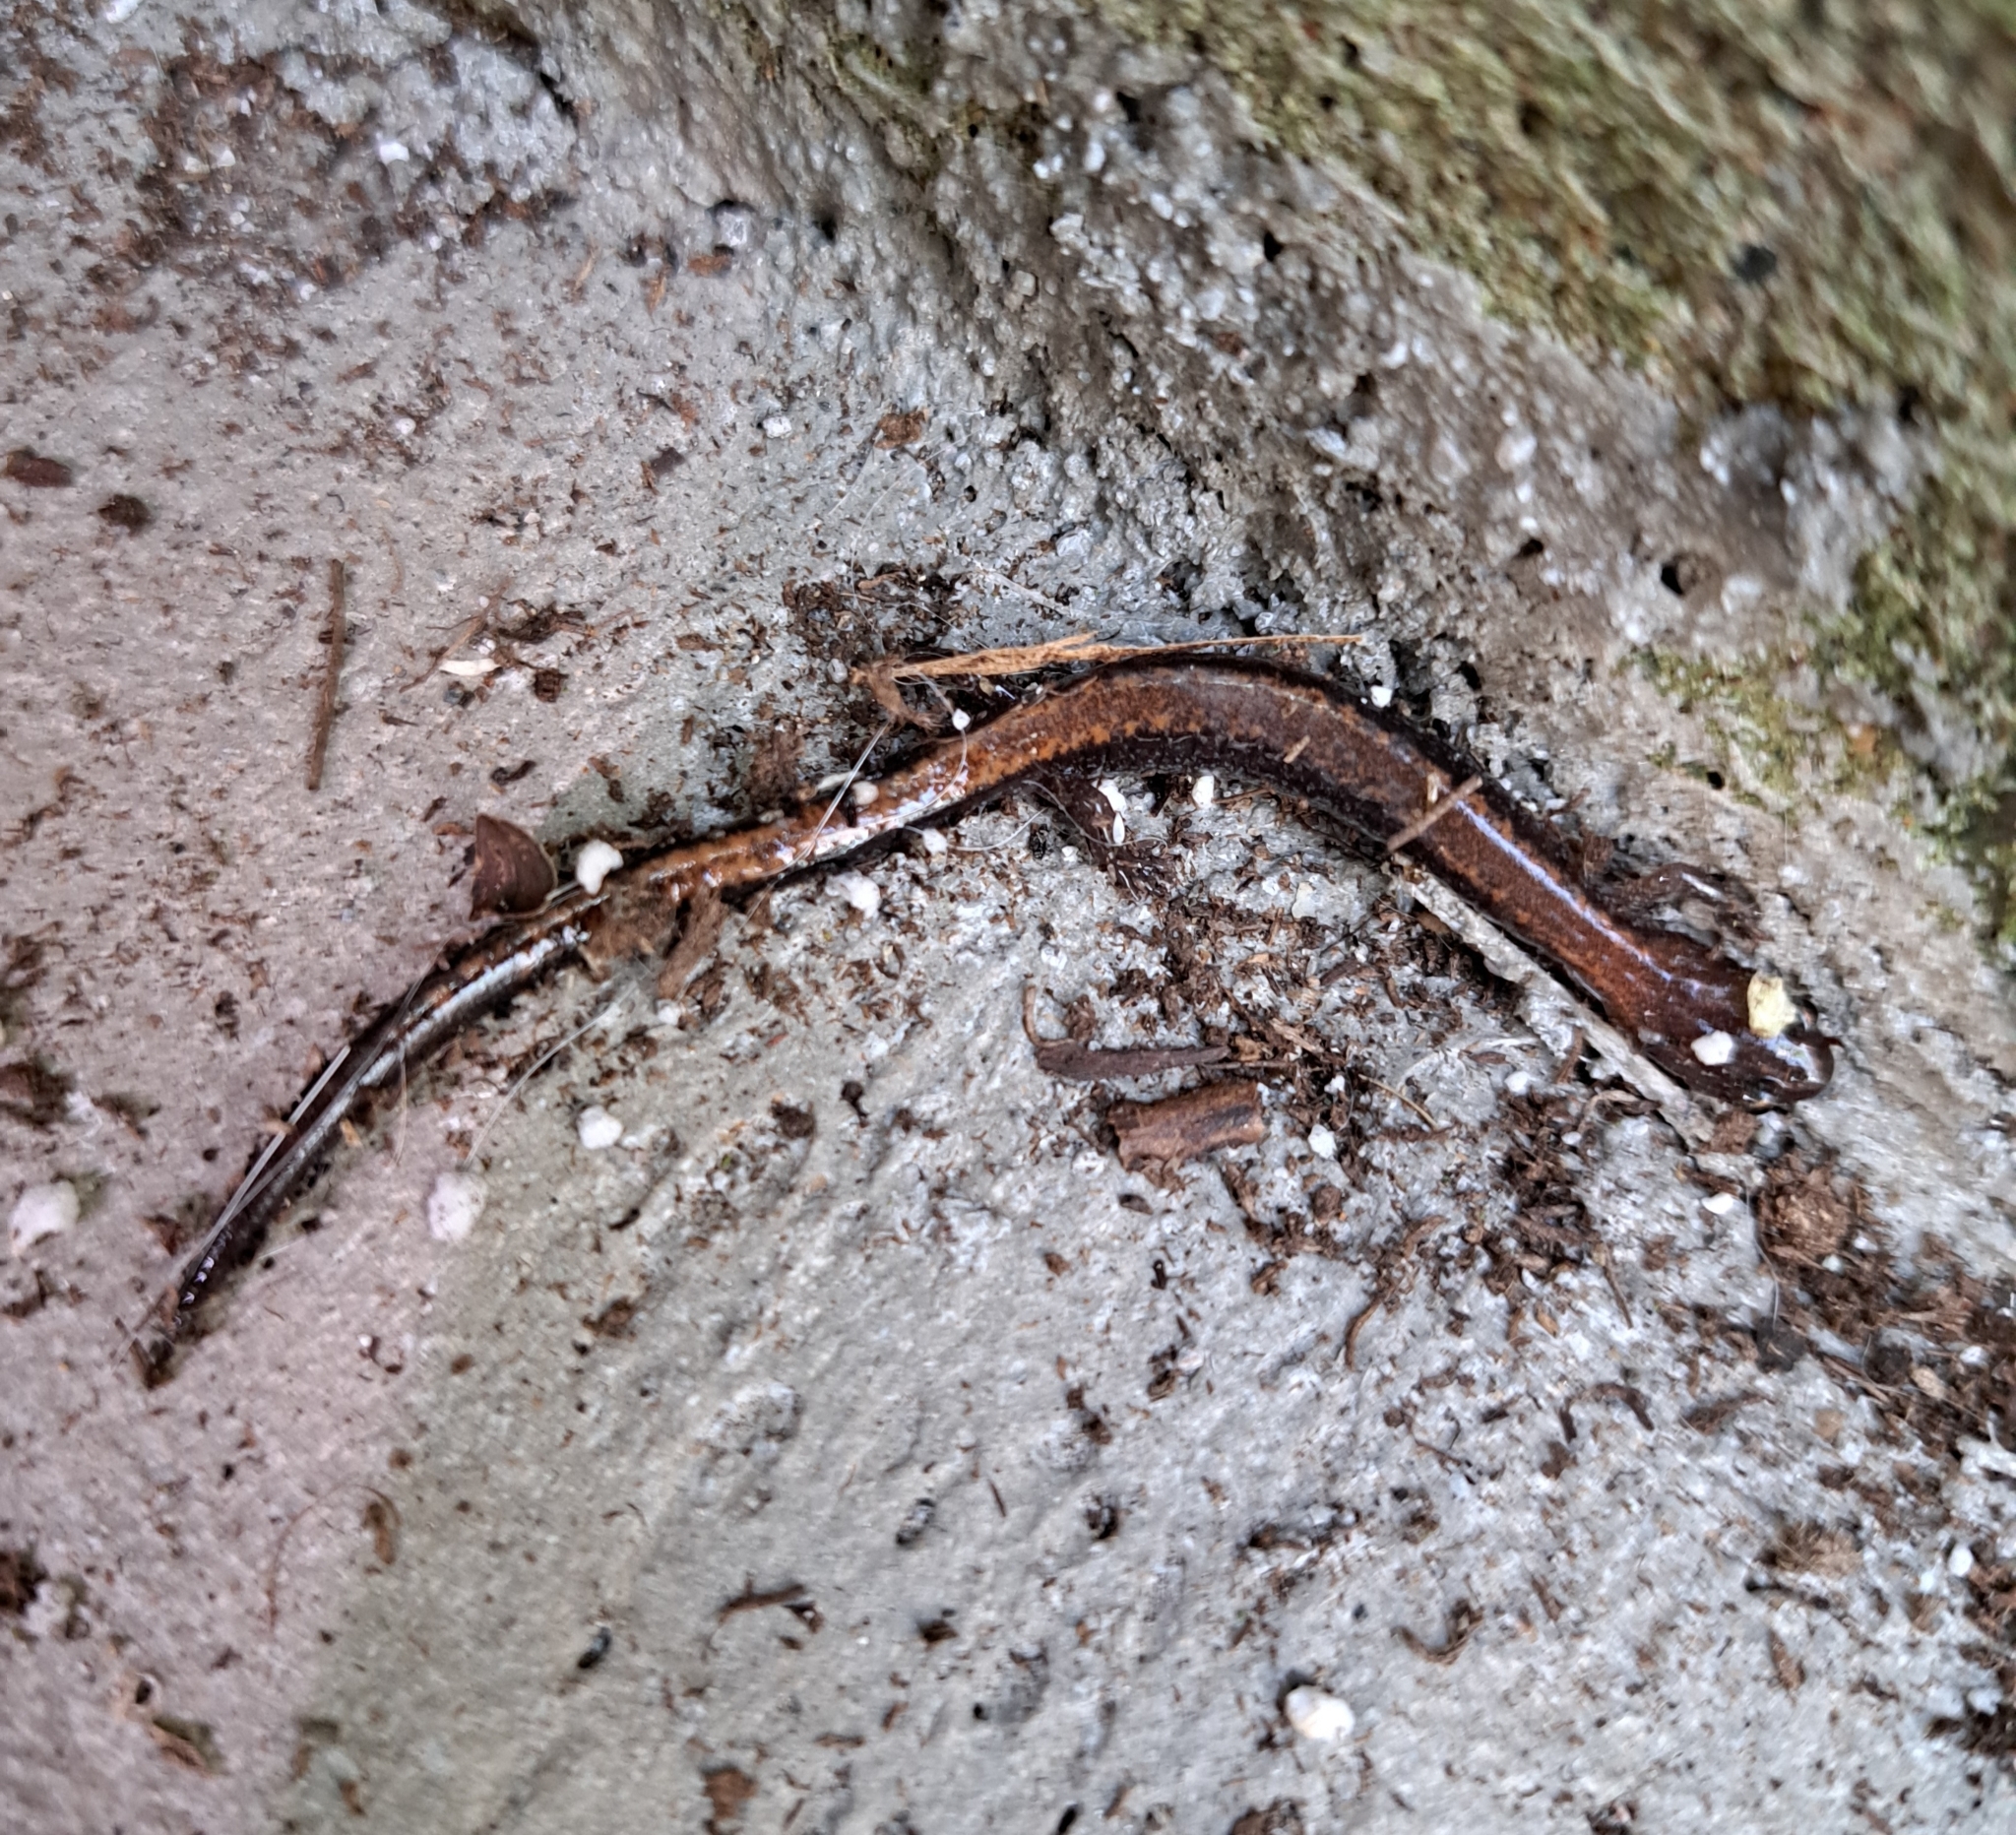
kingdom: Animalia
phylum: Chordata
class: Amphibia
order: Caudata
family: Plethodontidae
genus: Plethodon
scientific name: Plethodon cinereus
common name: Redback salamander
